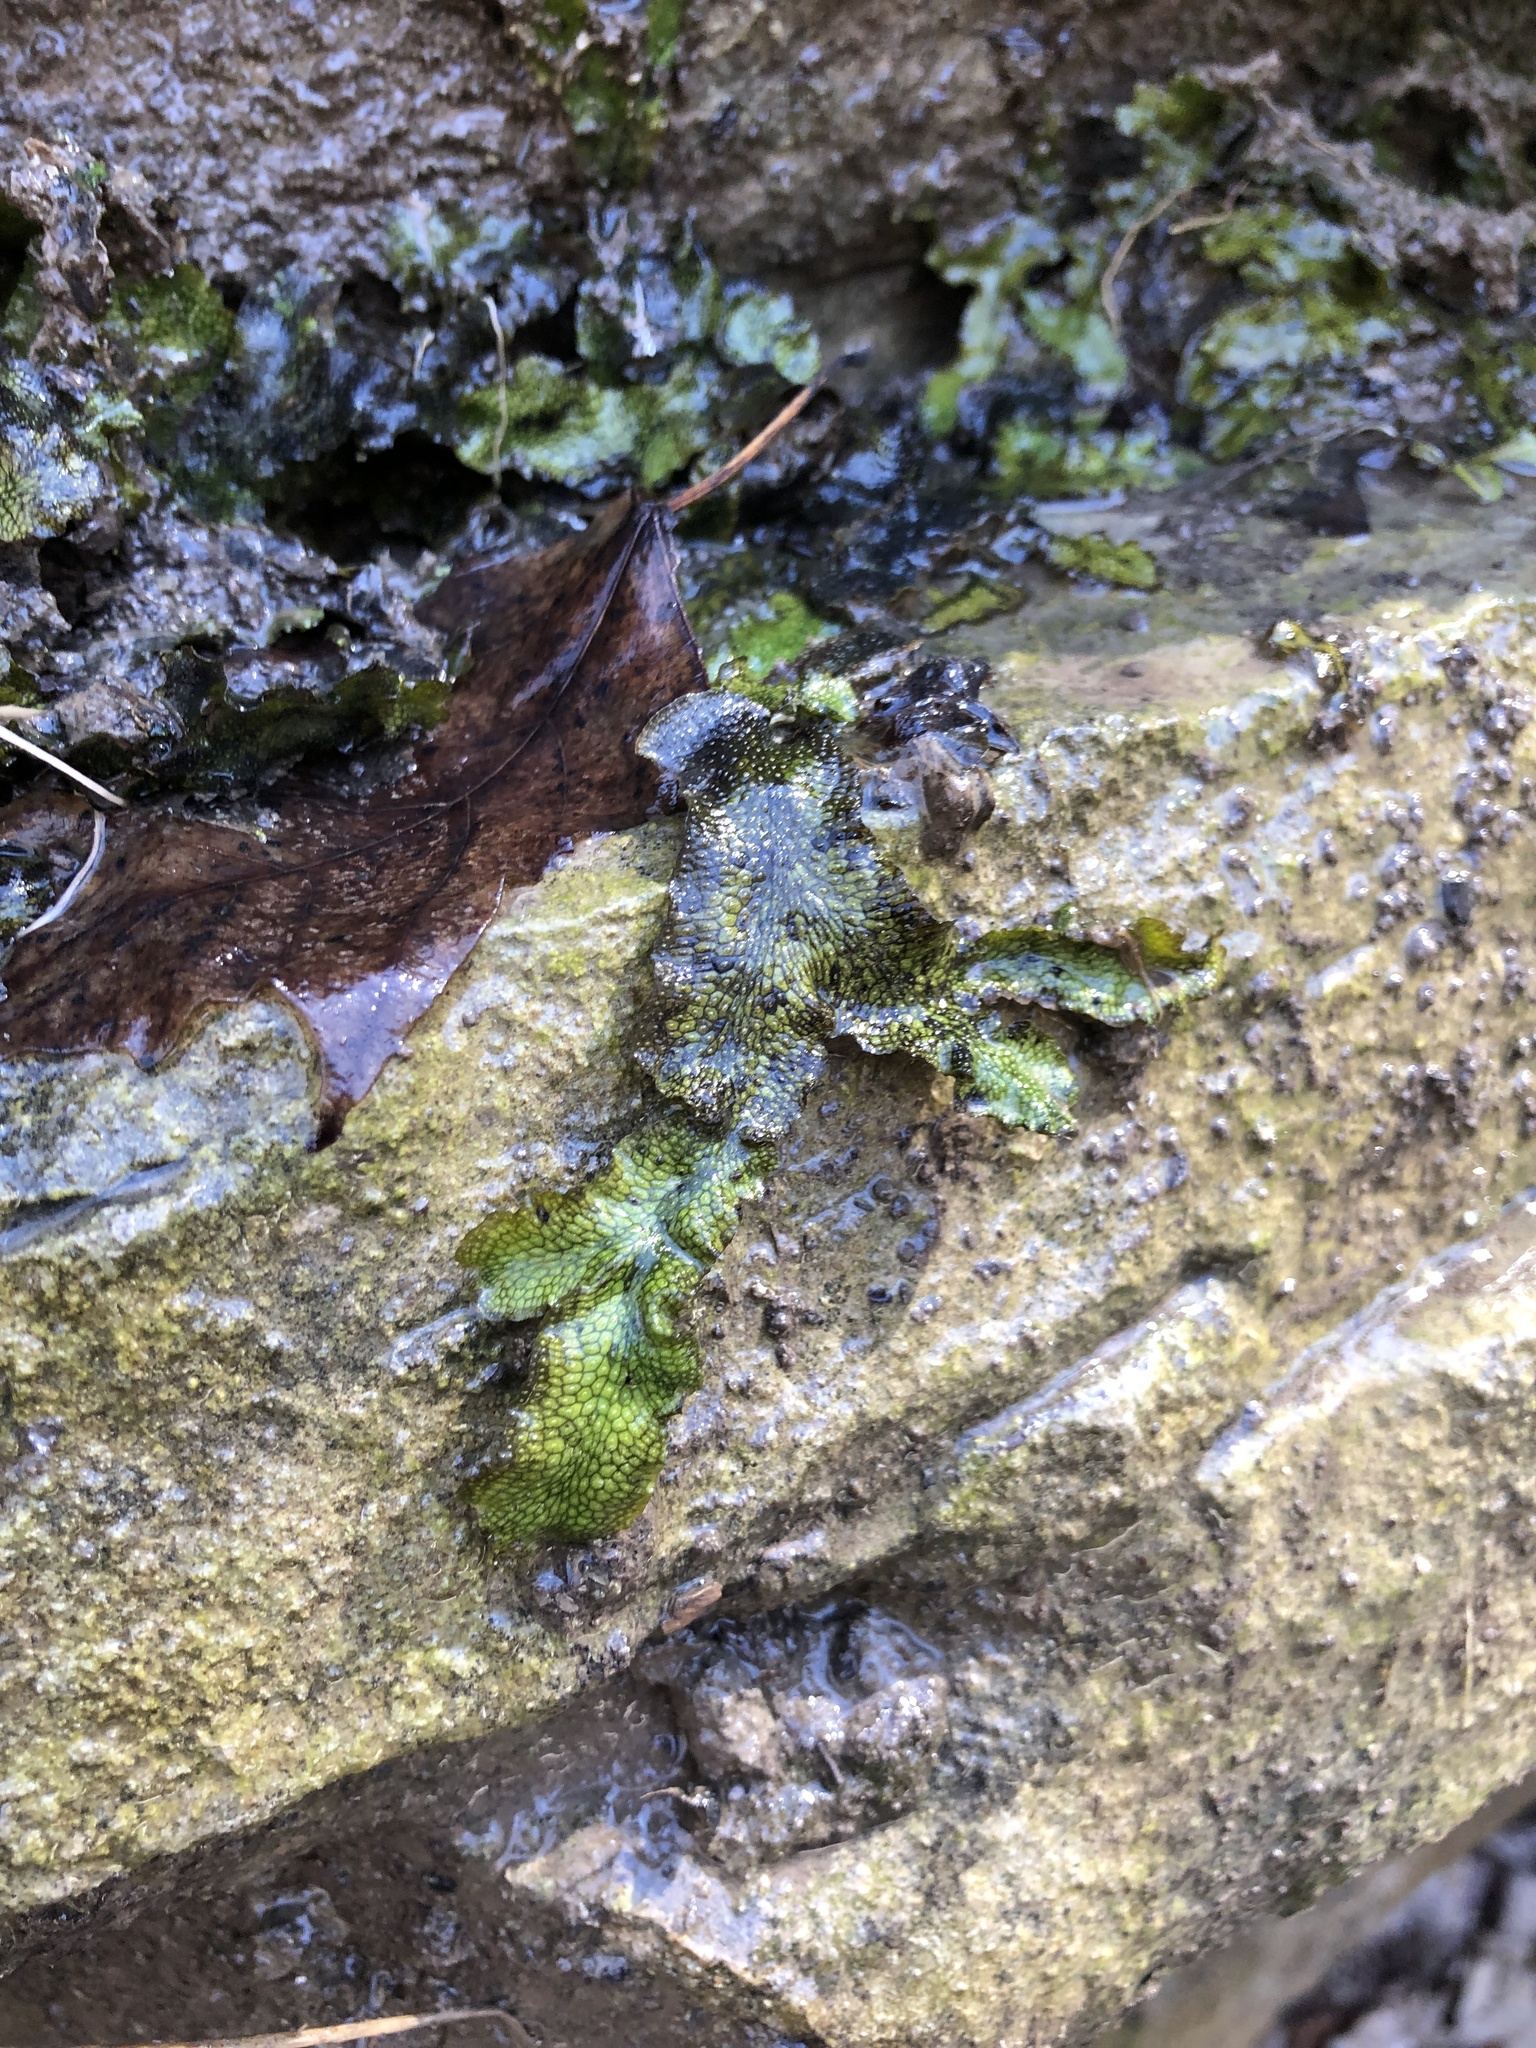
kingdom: Plantae
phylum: Marchantiophyta
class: Marchantiopsida
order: Marchantiales
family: Conocephalaceae
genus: Conocephalum
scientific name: Conocephalum salebrosum
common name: Cat-tongue liverwort
